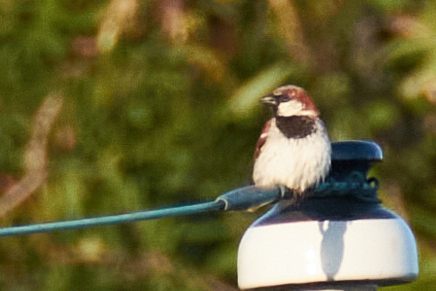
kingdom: Animalia
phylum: Chordata
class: Aves
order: Passeriformes
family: Passeridae
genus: Passer
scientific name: Passer domesticus
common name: House sparrow
